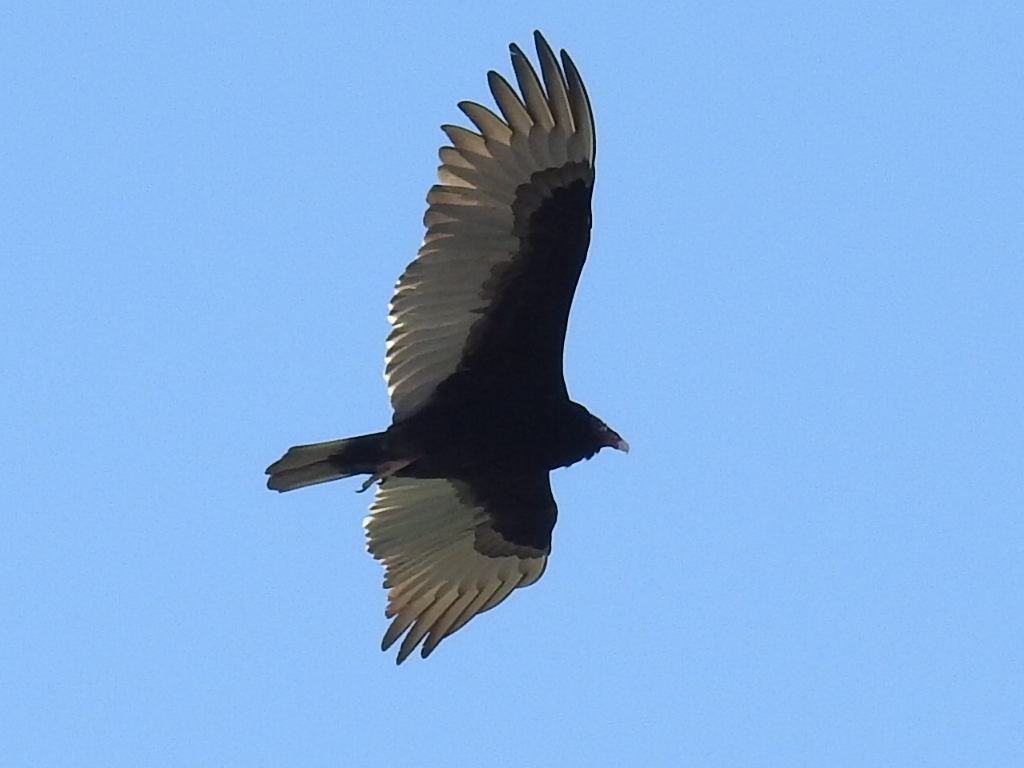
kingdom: Animalia
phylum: Chordata
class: Aves
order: Accipitriformes
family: Cathartidae
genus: Cathartes
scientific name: Cathartes aura
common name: Turkey vulture
